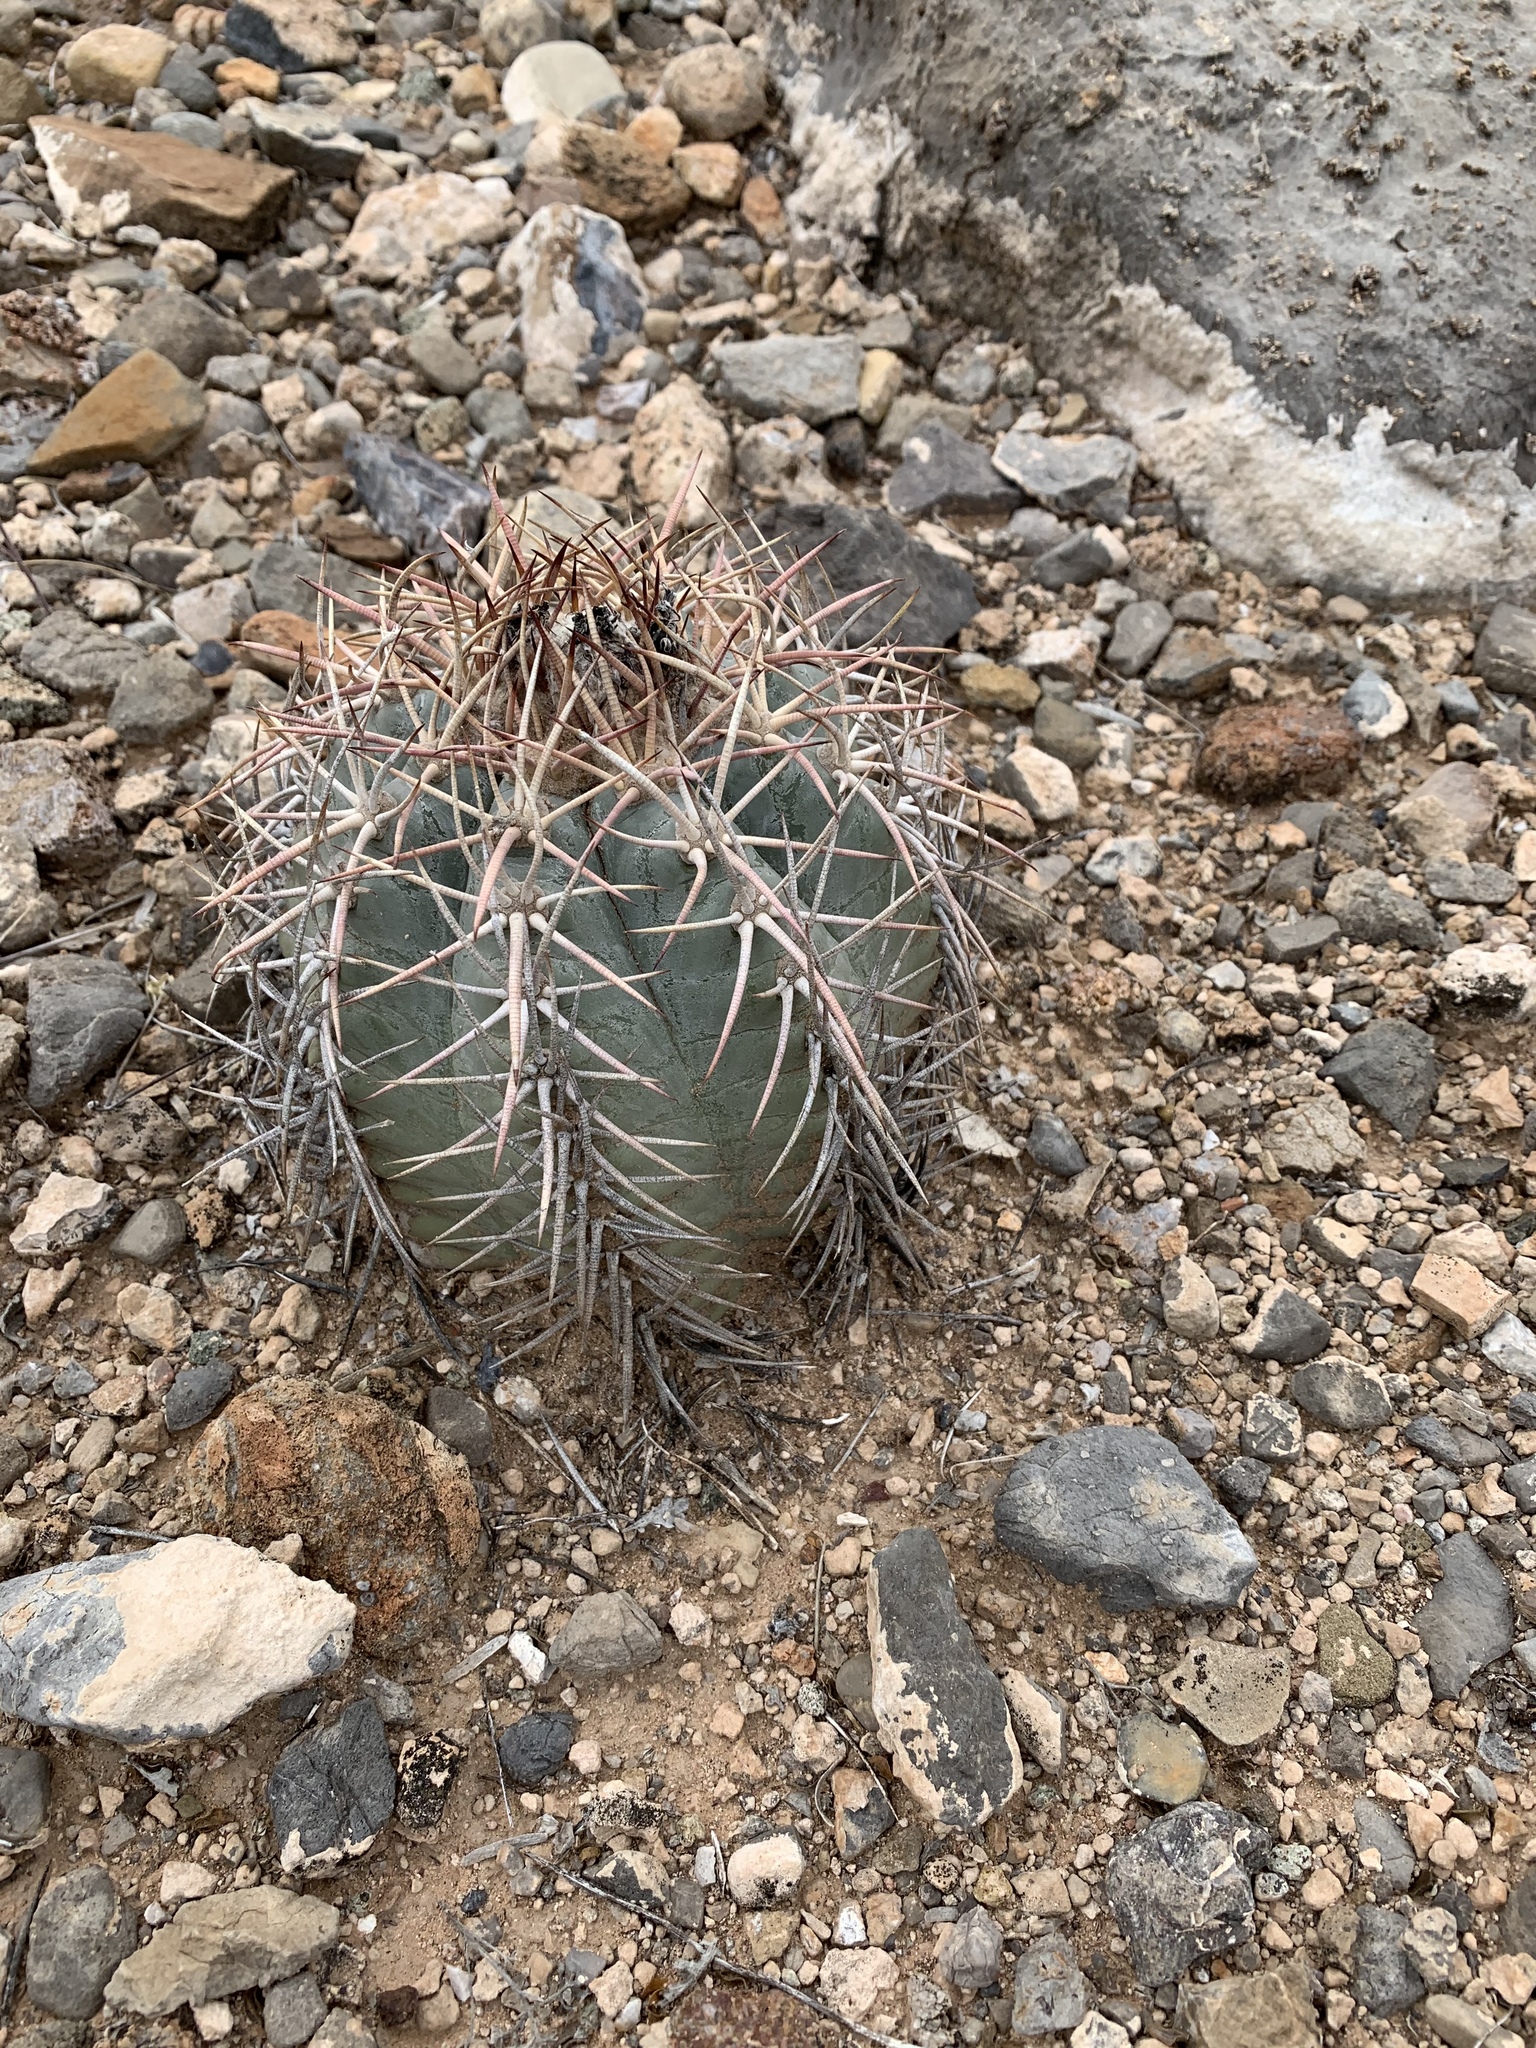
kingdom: Plantae
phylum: Tracheophyta
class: Magnoliopsida
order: Caryophyllales
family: Cactaceae
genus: Echinocactus
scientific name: Echinocactus horizonthalonius
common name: Devilshead
